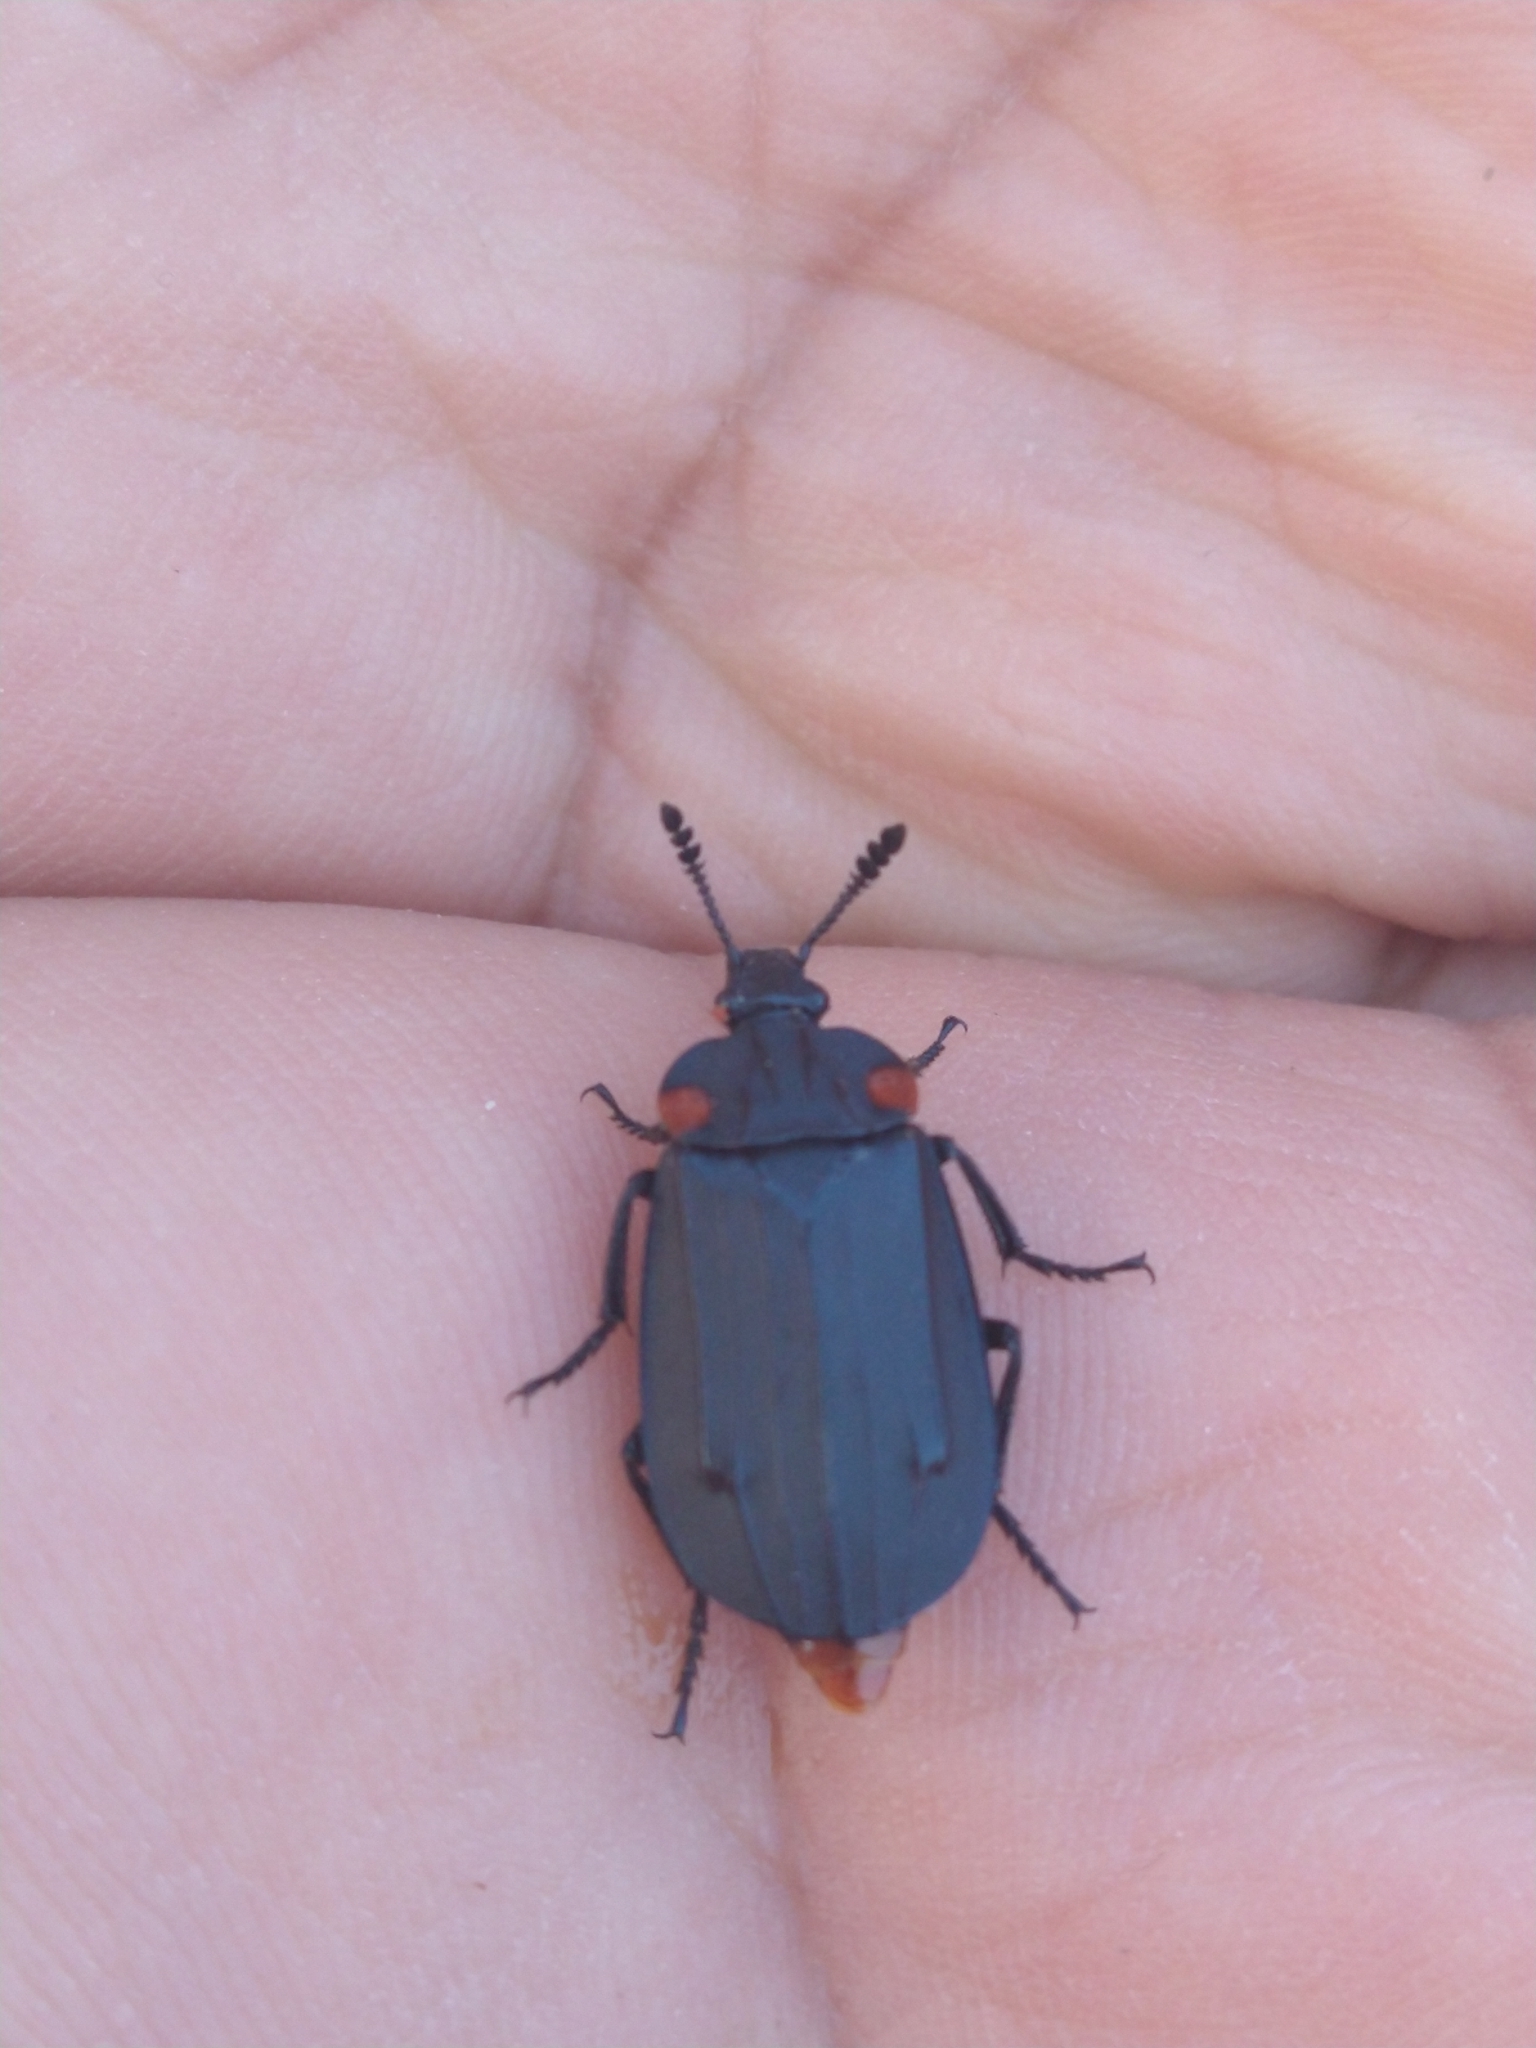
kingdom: Animalia
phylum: Arthropoda
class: Insecta
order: Coleoptera
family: Staphylinidae
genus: Oxelytrum
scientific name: Oxelytrum selknan
